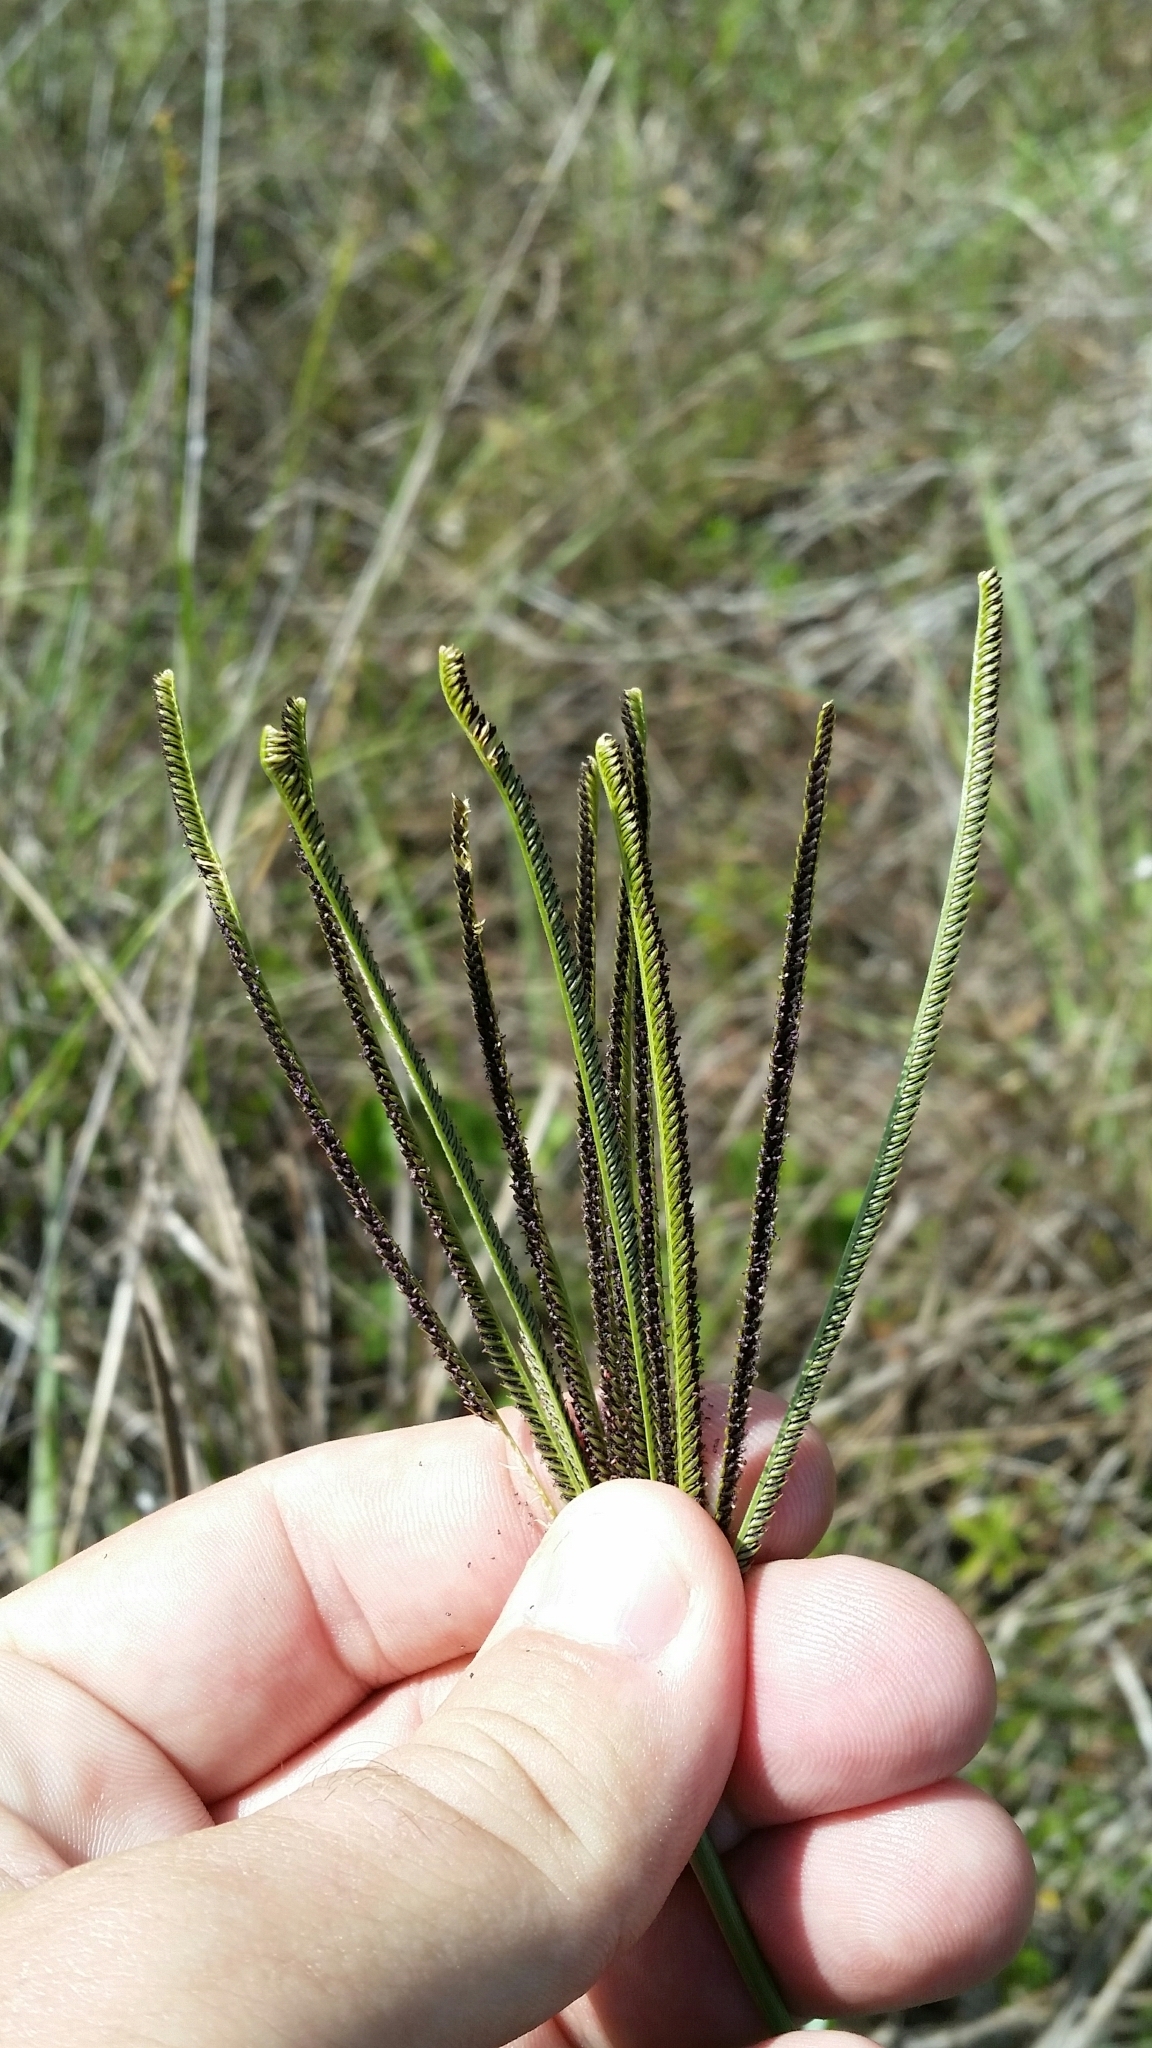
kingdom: Plantae
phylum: Tracheophyta
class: Liliopsida
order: Poales
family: Poaceae
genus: Eustachys
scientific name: Eustachys glauca
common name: Saltmarsh finger grass
